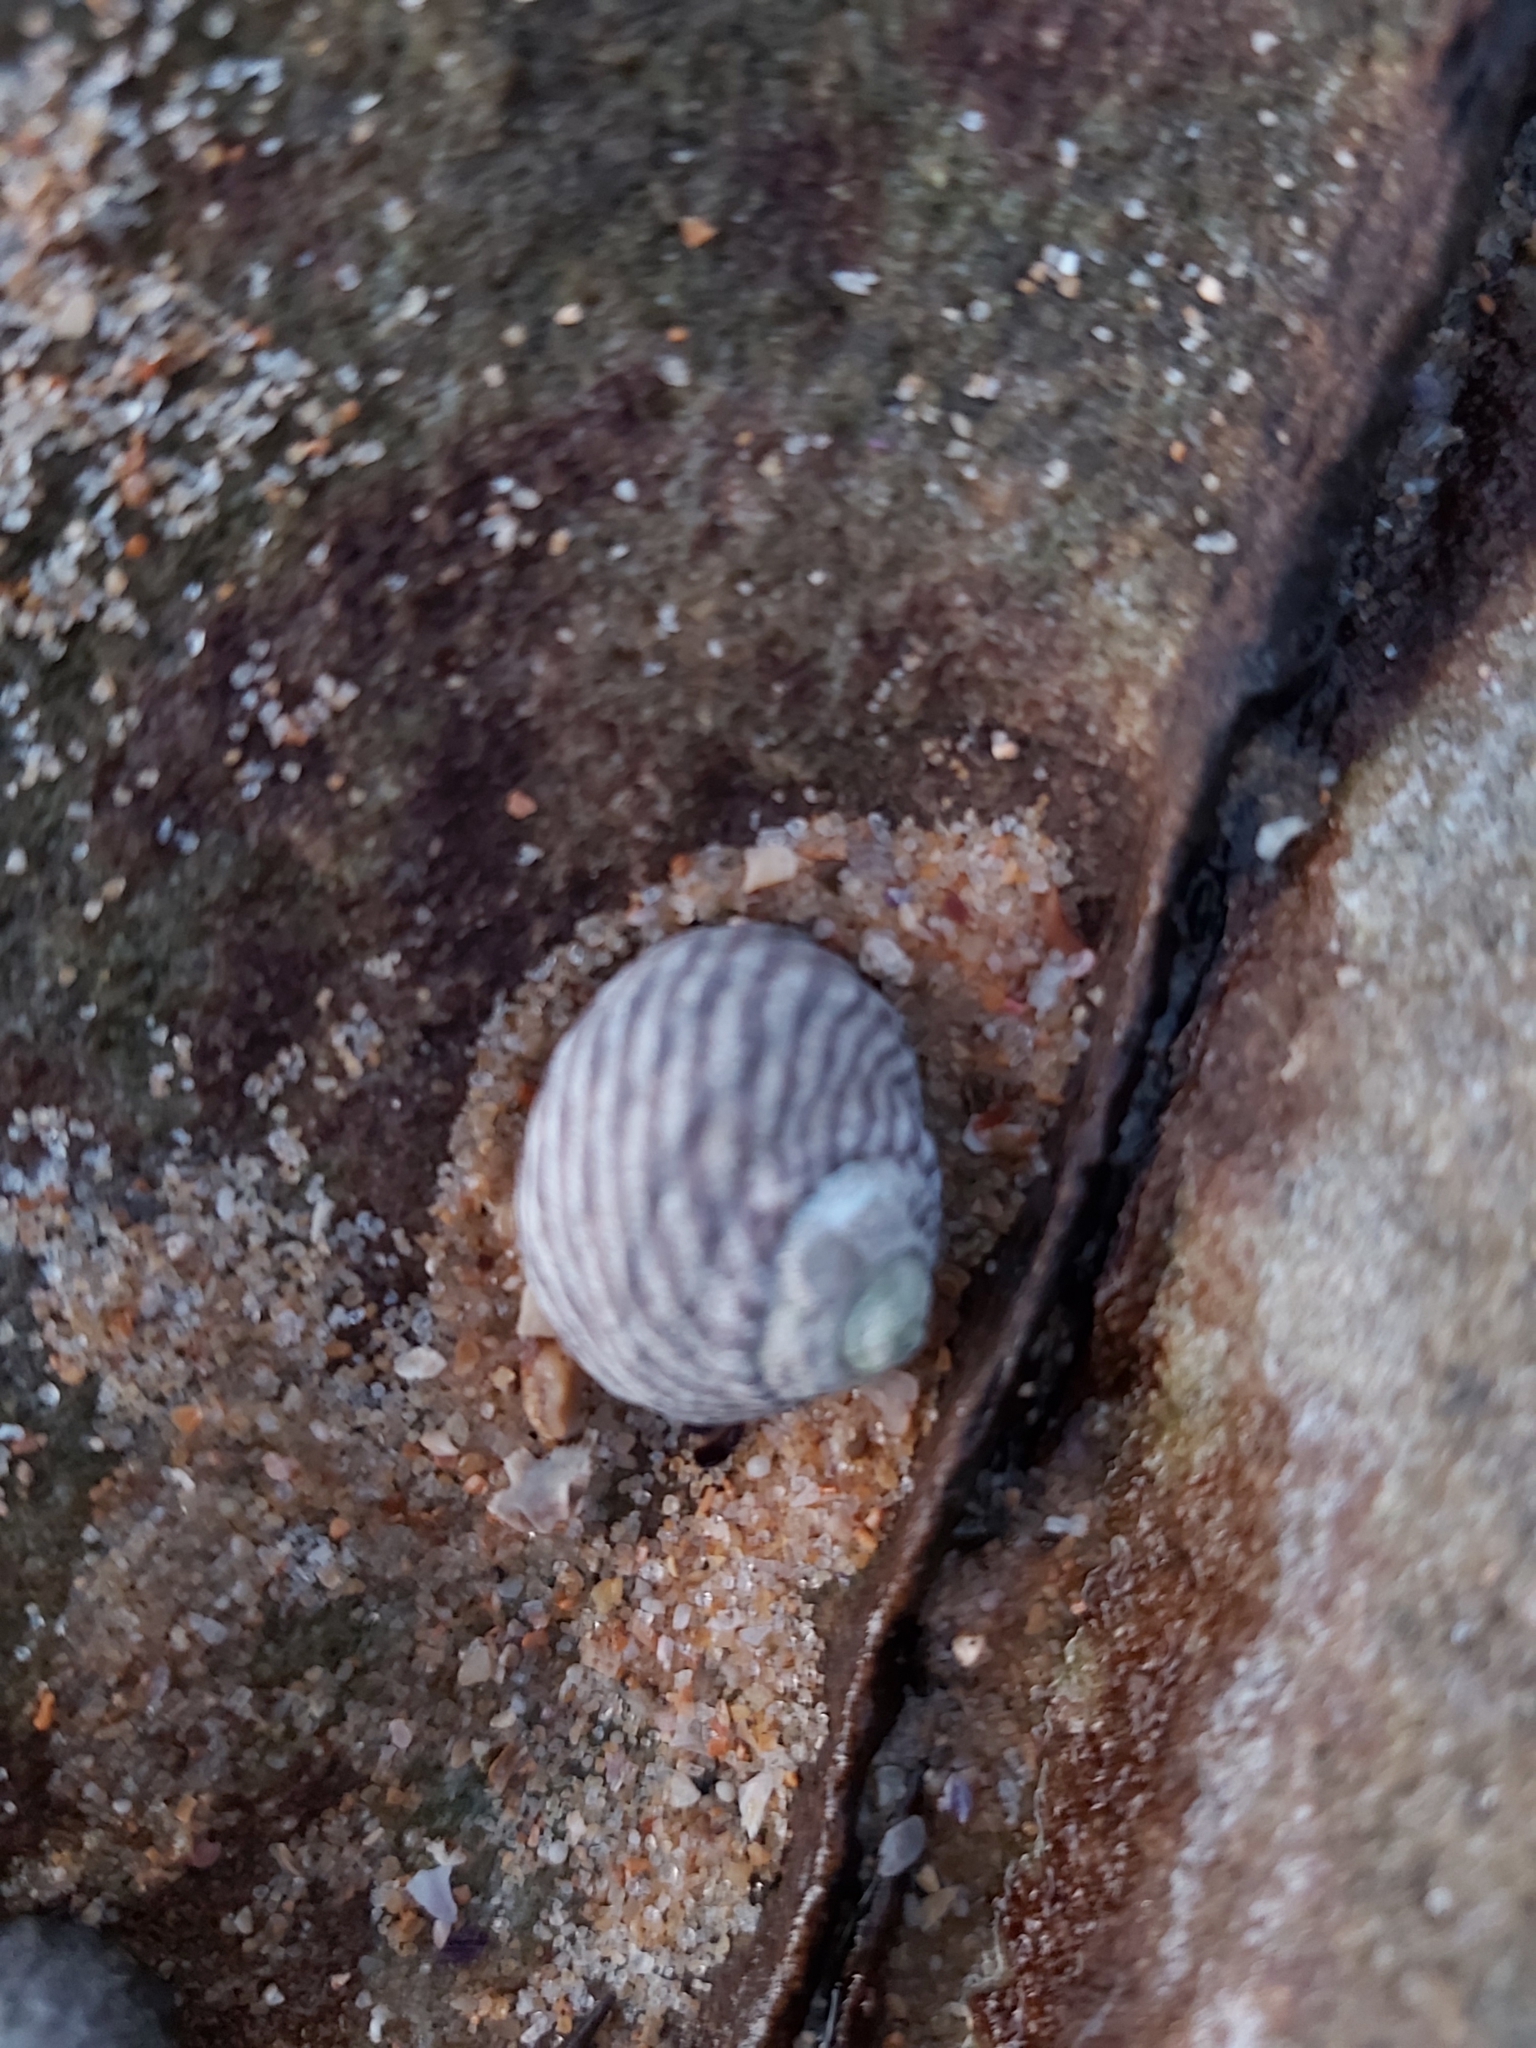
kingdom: Animalia
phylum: Mollusca
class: Gastropoda
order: Trochida
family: Trochidae
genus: Austrocochlea
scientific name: Austrocochlea porcata
